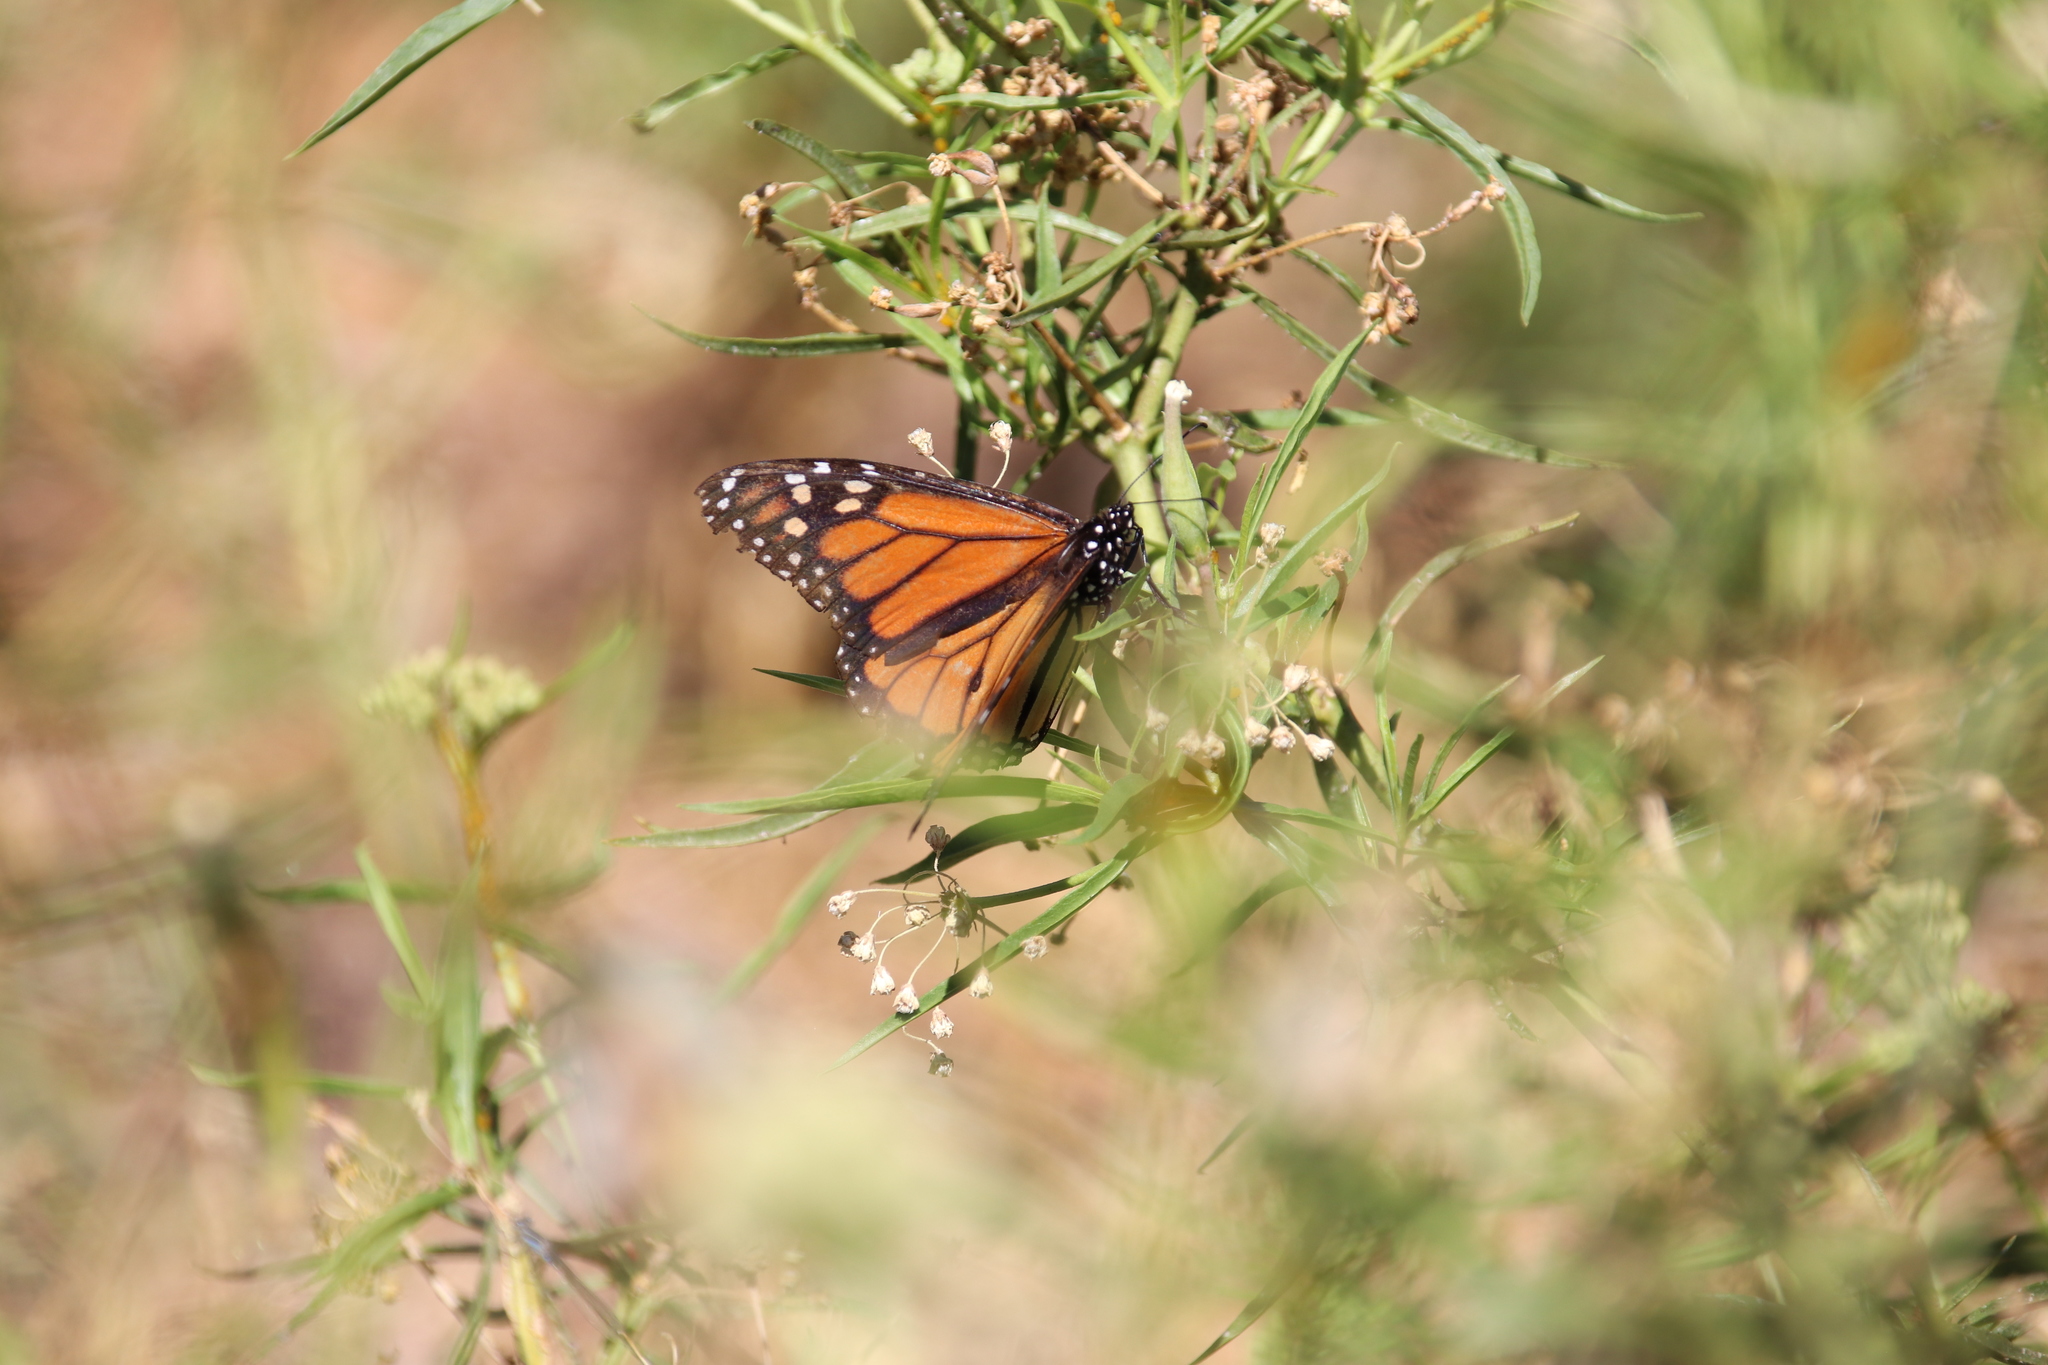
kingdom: Animalia
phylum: Arthropoda
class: Insecta
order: Lepidoptera
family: Nymphalidae
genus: Danaus
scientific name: Danaus plexippus
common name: Monarch
